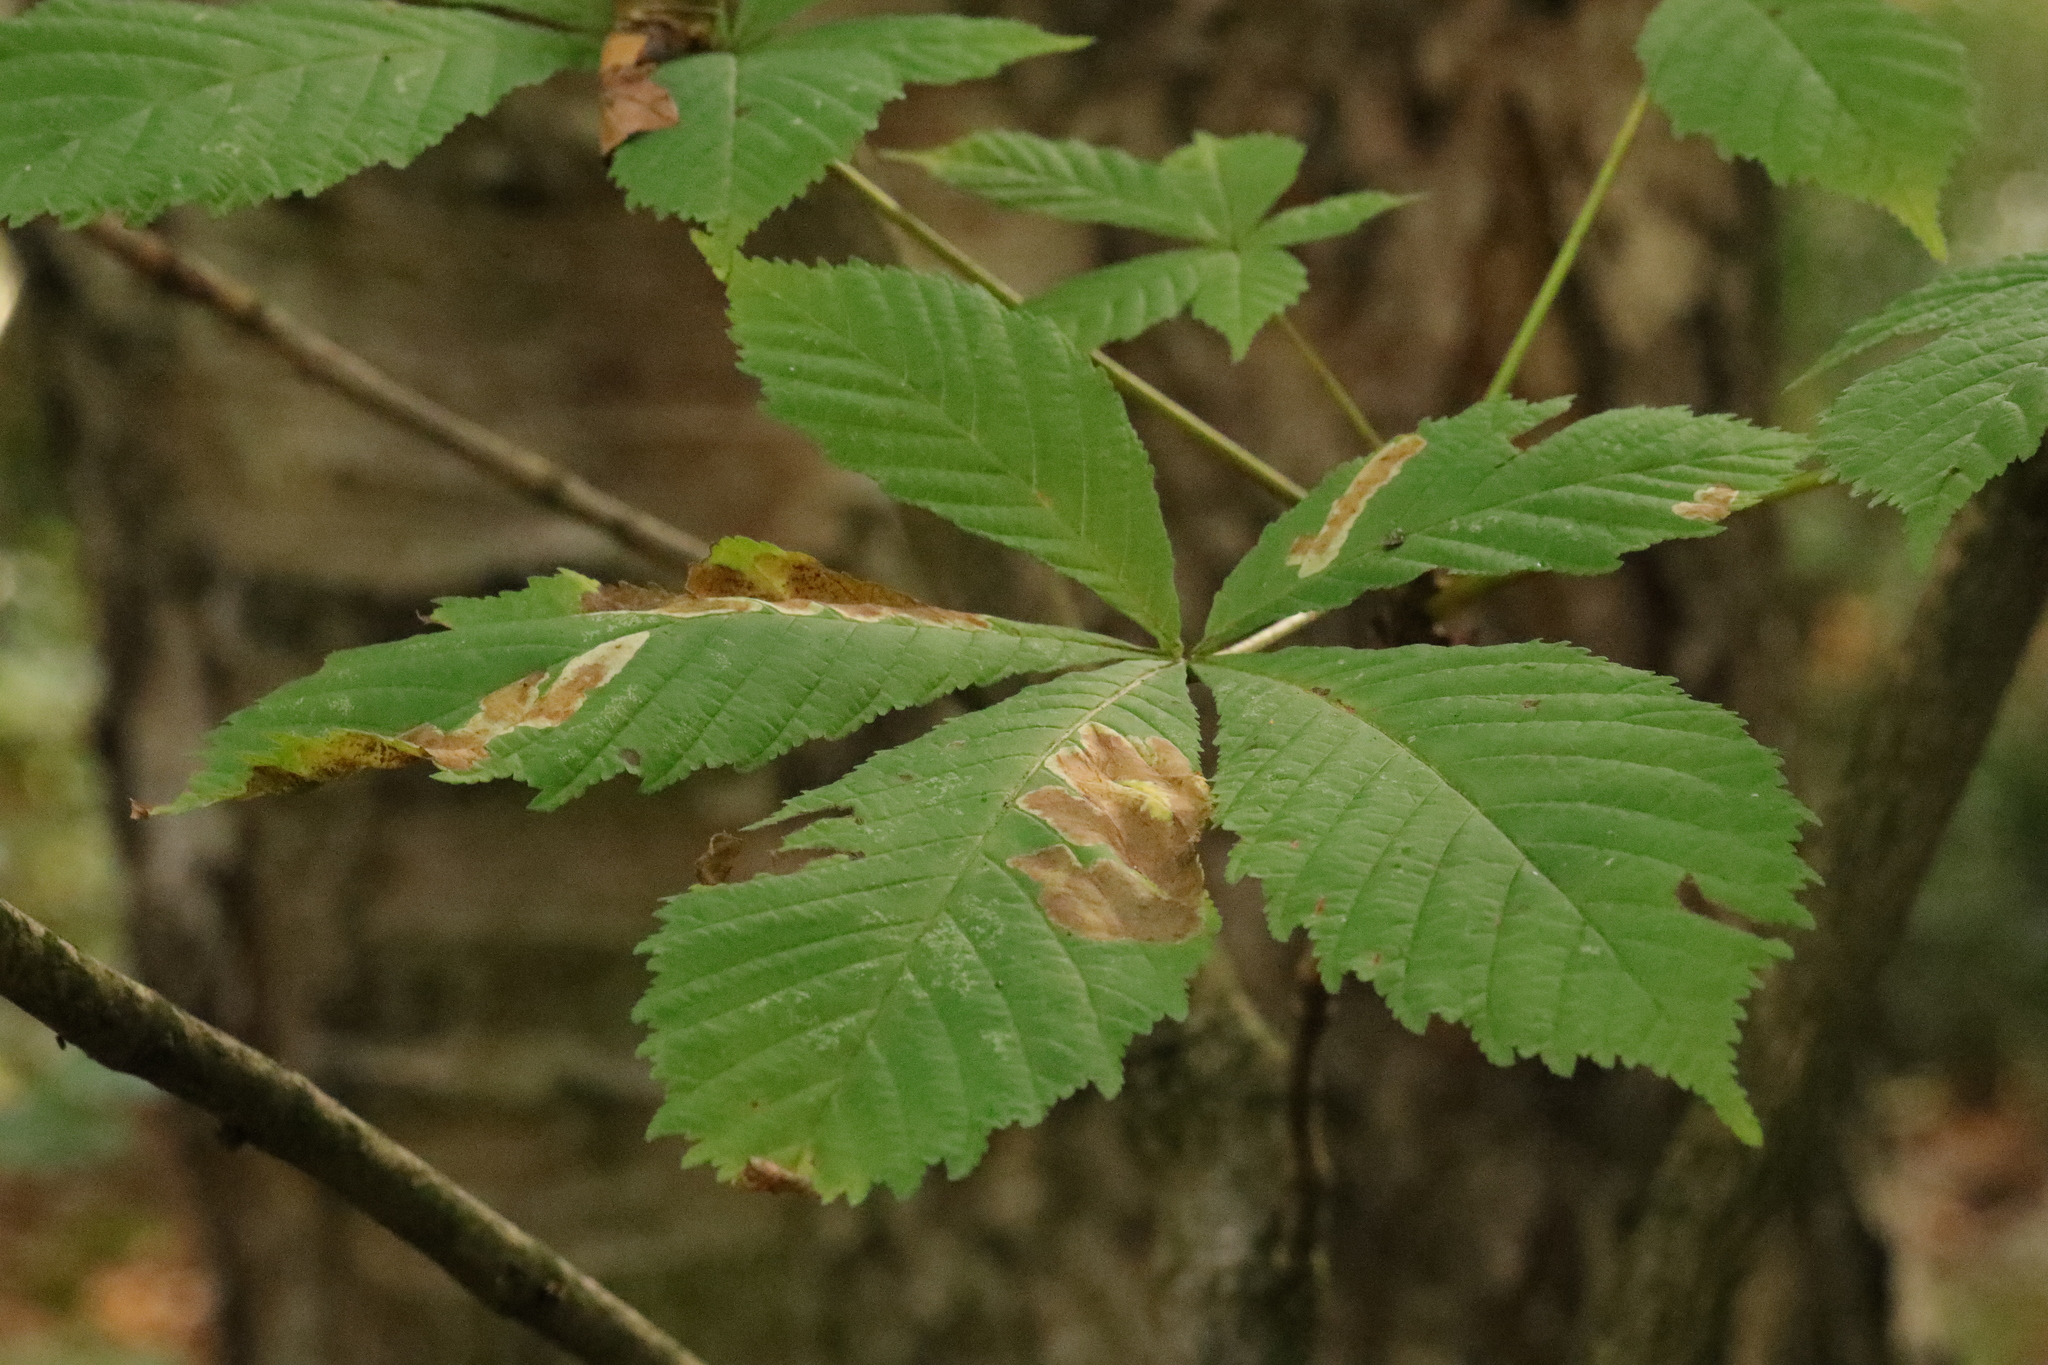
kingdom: Animalia
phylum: Arthropoda
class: Insecta
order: Lepidoptera
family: Gracillariidae
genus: Cameraria
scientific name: Cameraria ohridella
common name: Horse-chestnut leaf-miner
